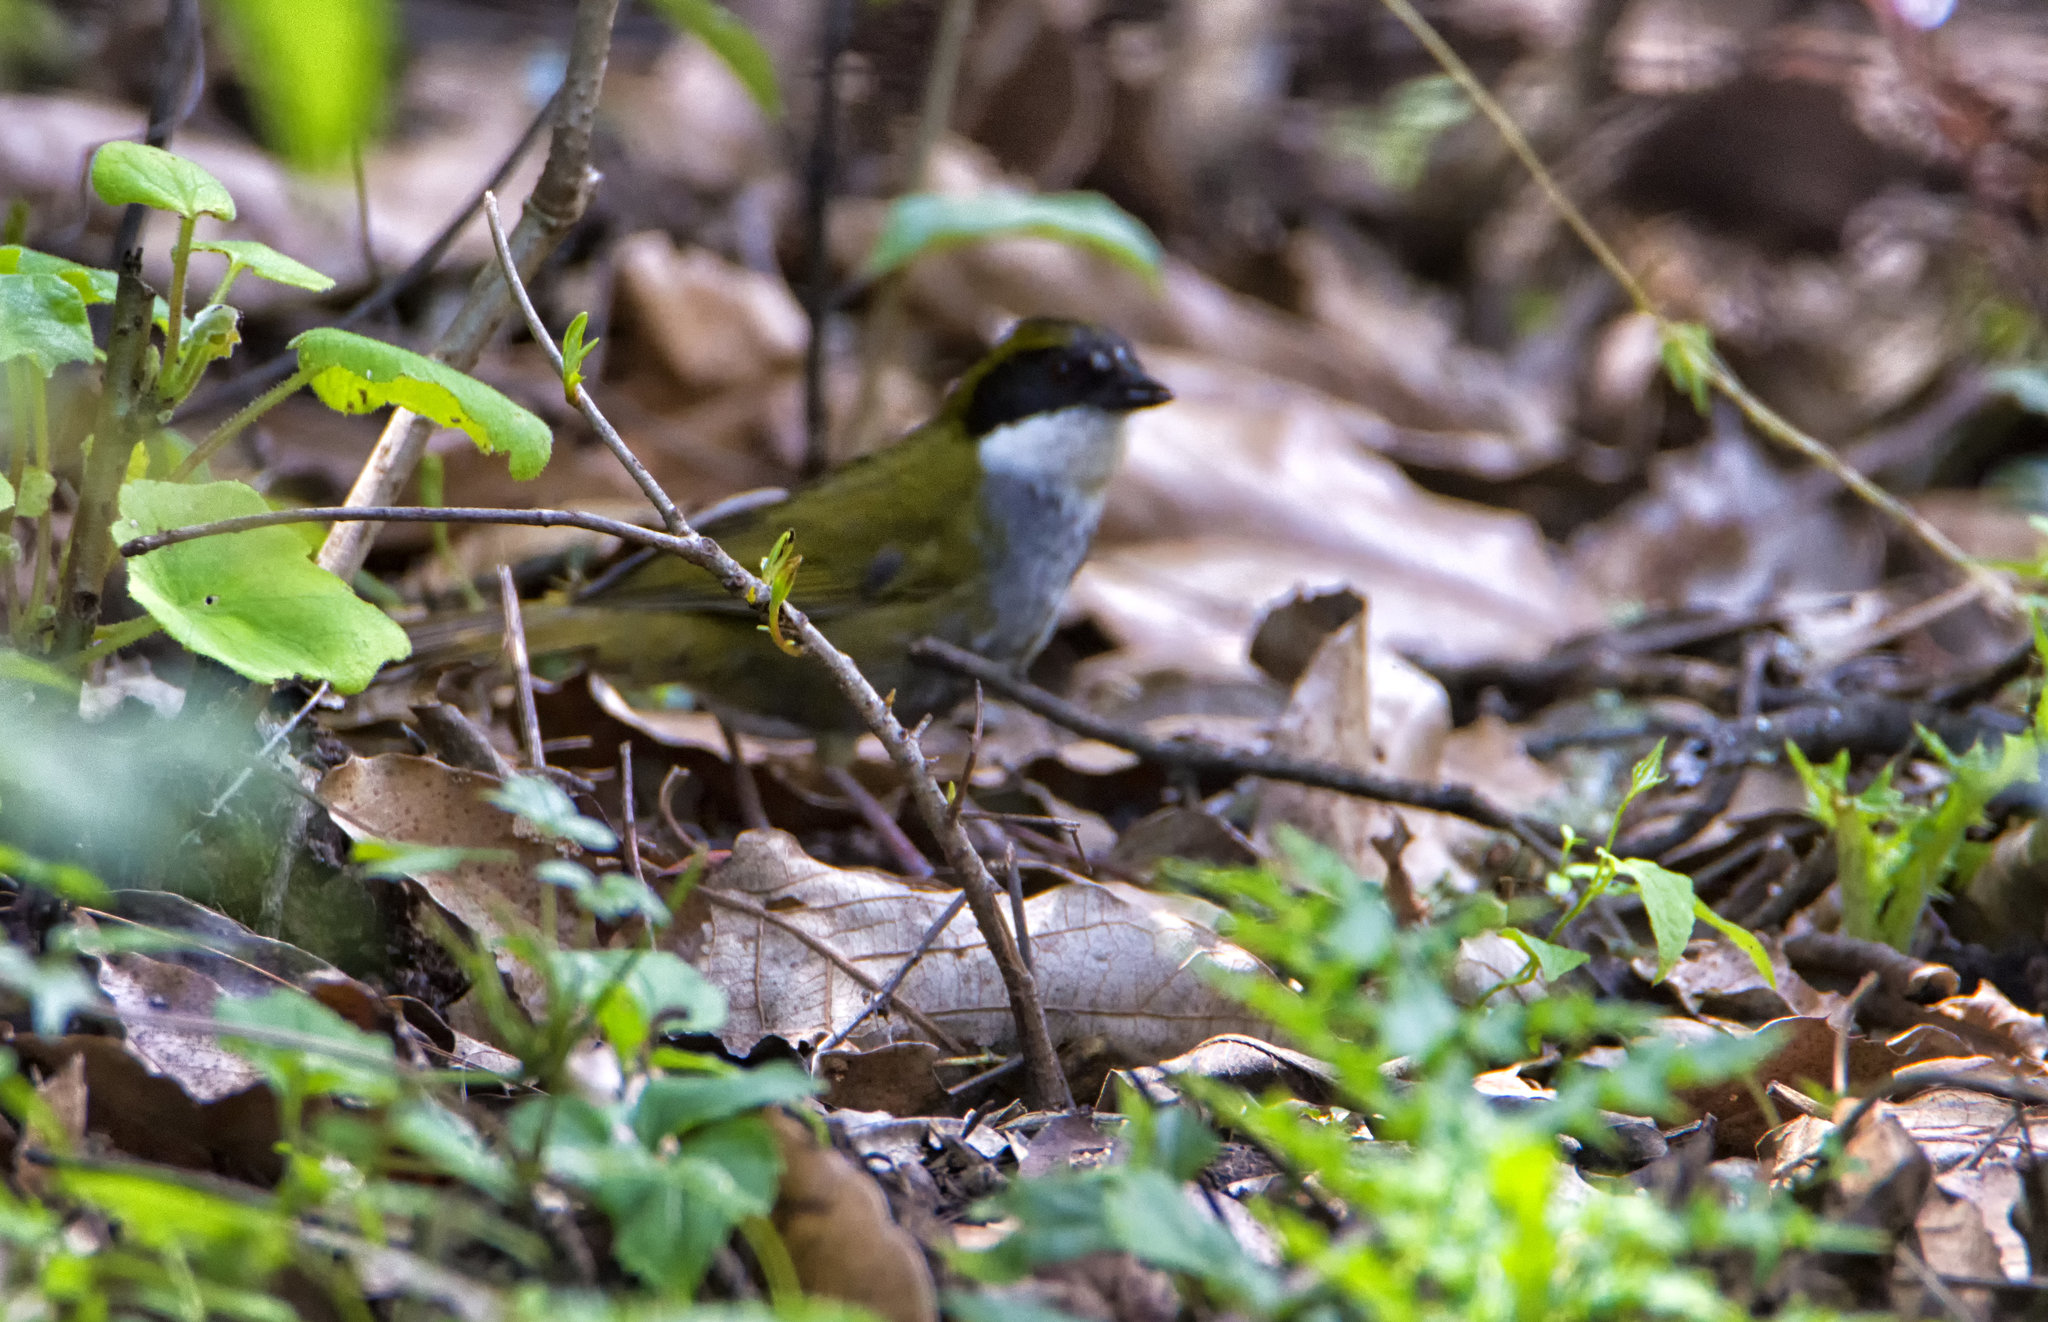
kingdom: Animalia
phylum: Chordata
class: Aves
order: Passeriformes
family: Passerellidae
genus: Arremon
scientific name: Arremon virenticeps
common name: Green-striped brushfinch
